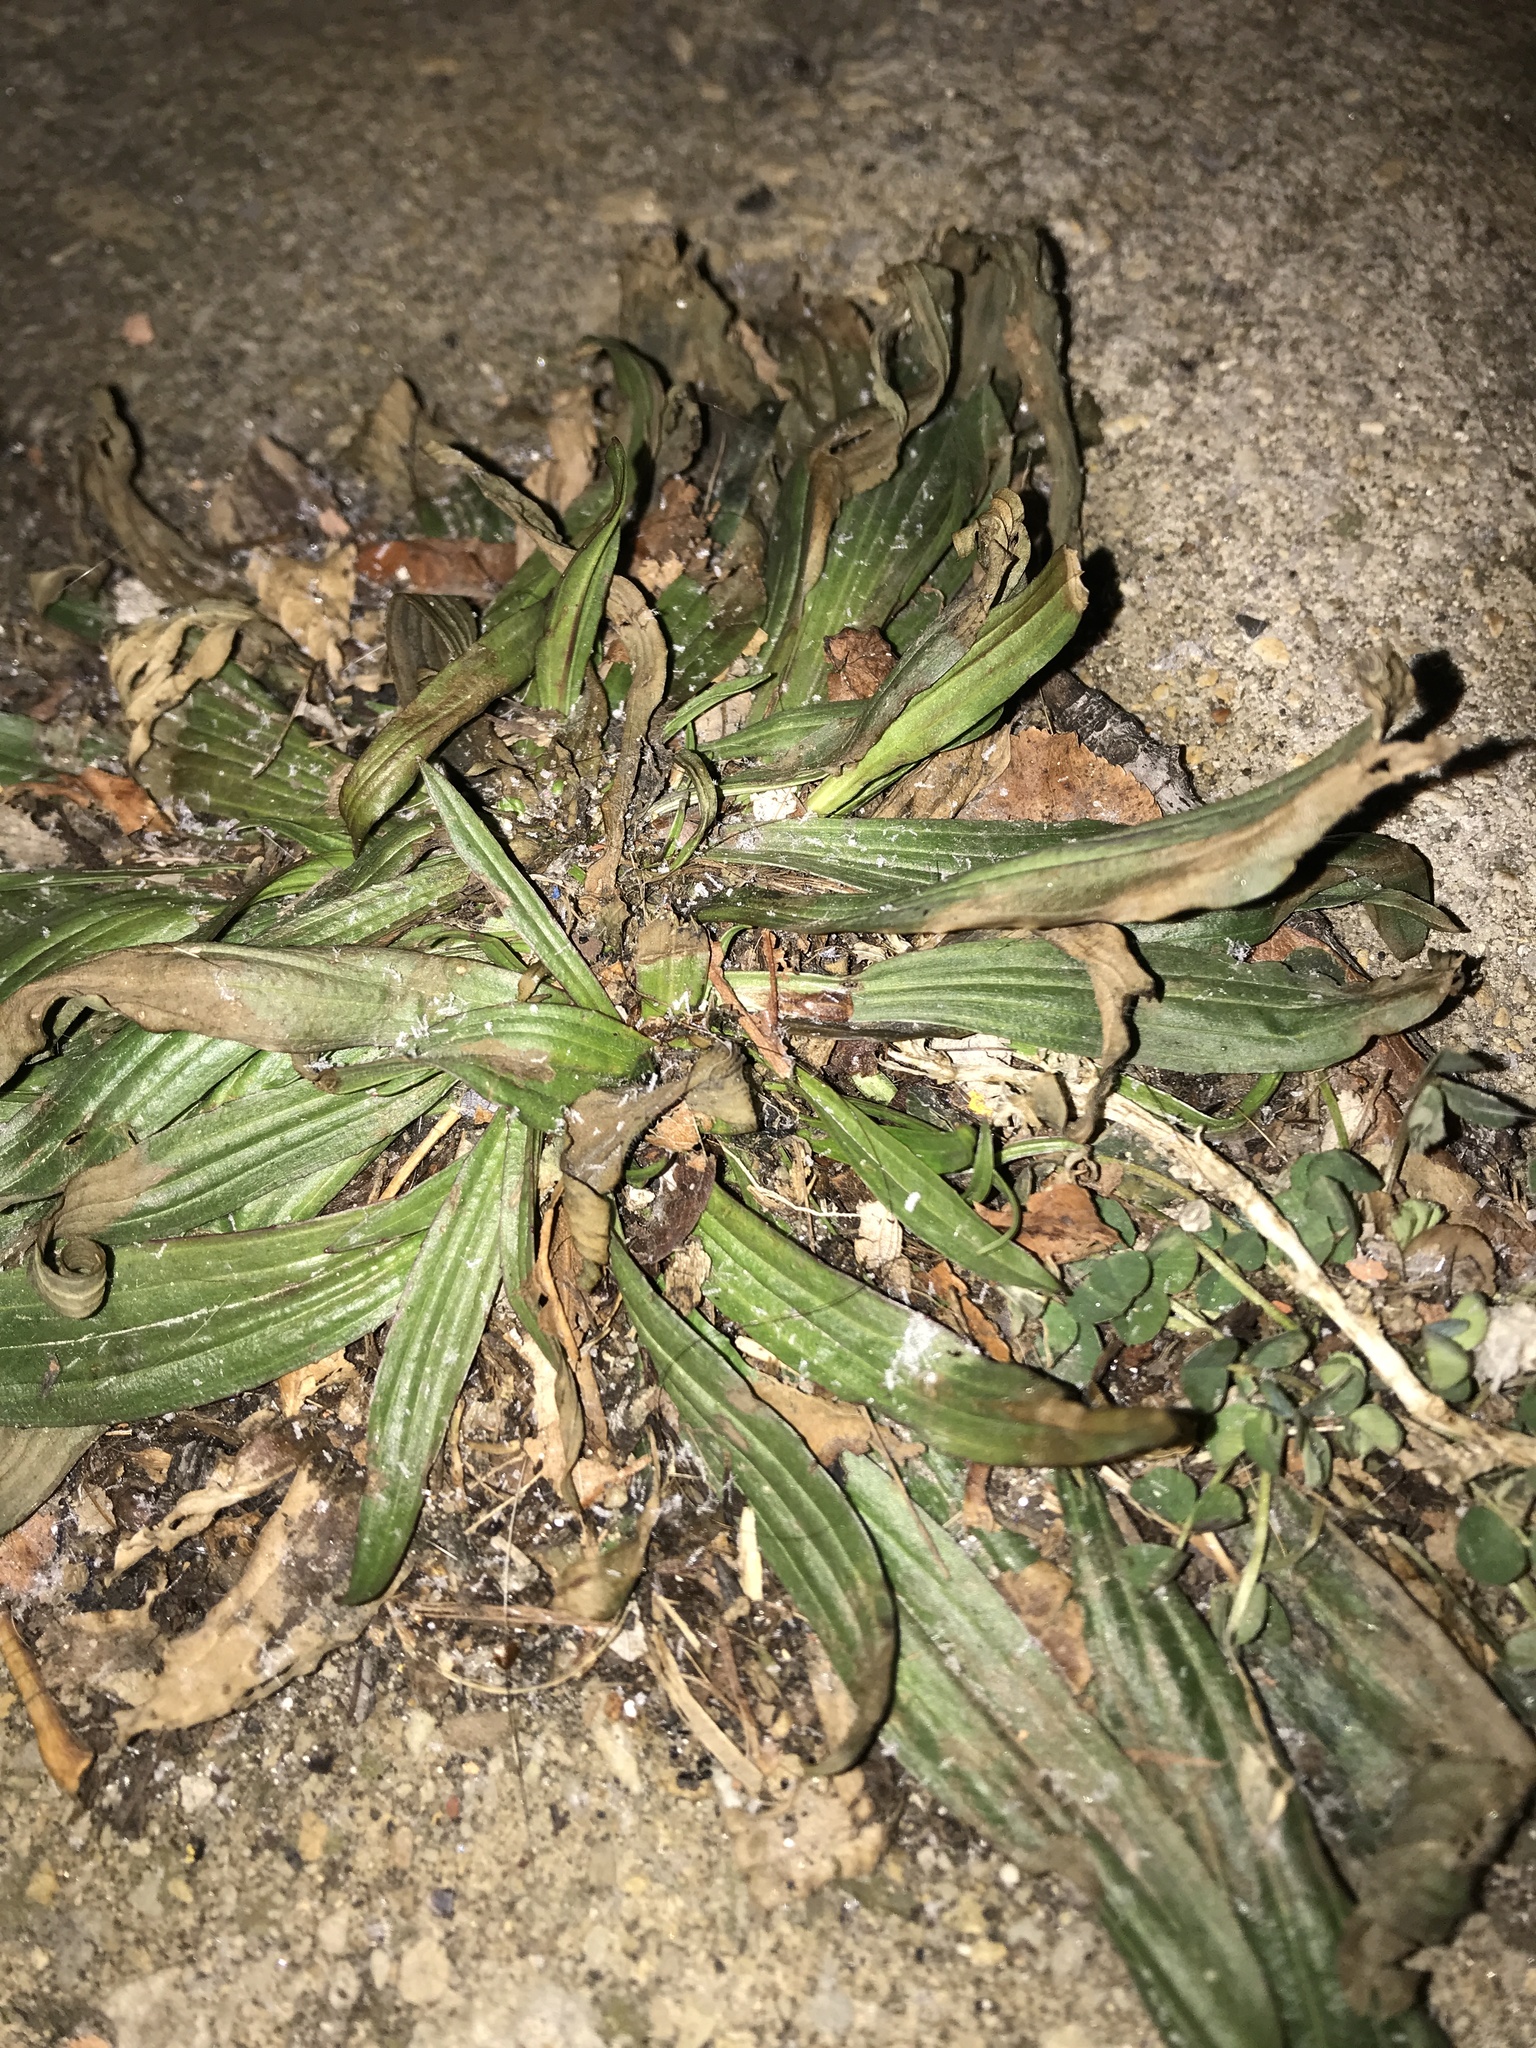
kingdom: Plantae
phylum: Tracheophyta
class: Magnoliopsida
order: Lamiales
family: Plantaginaceae
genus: Plantago
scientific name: Plantago lanceolata
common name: Ribwort plantain
